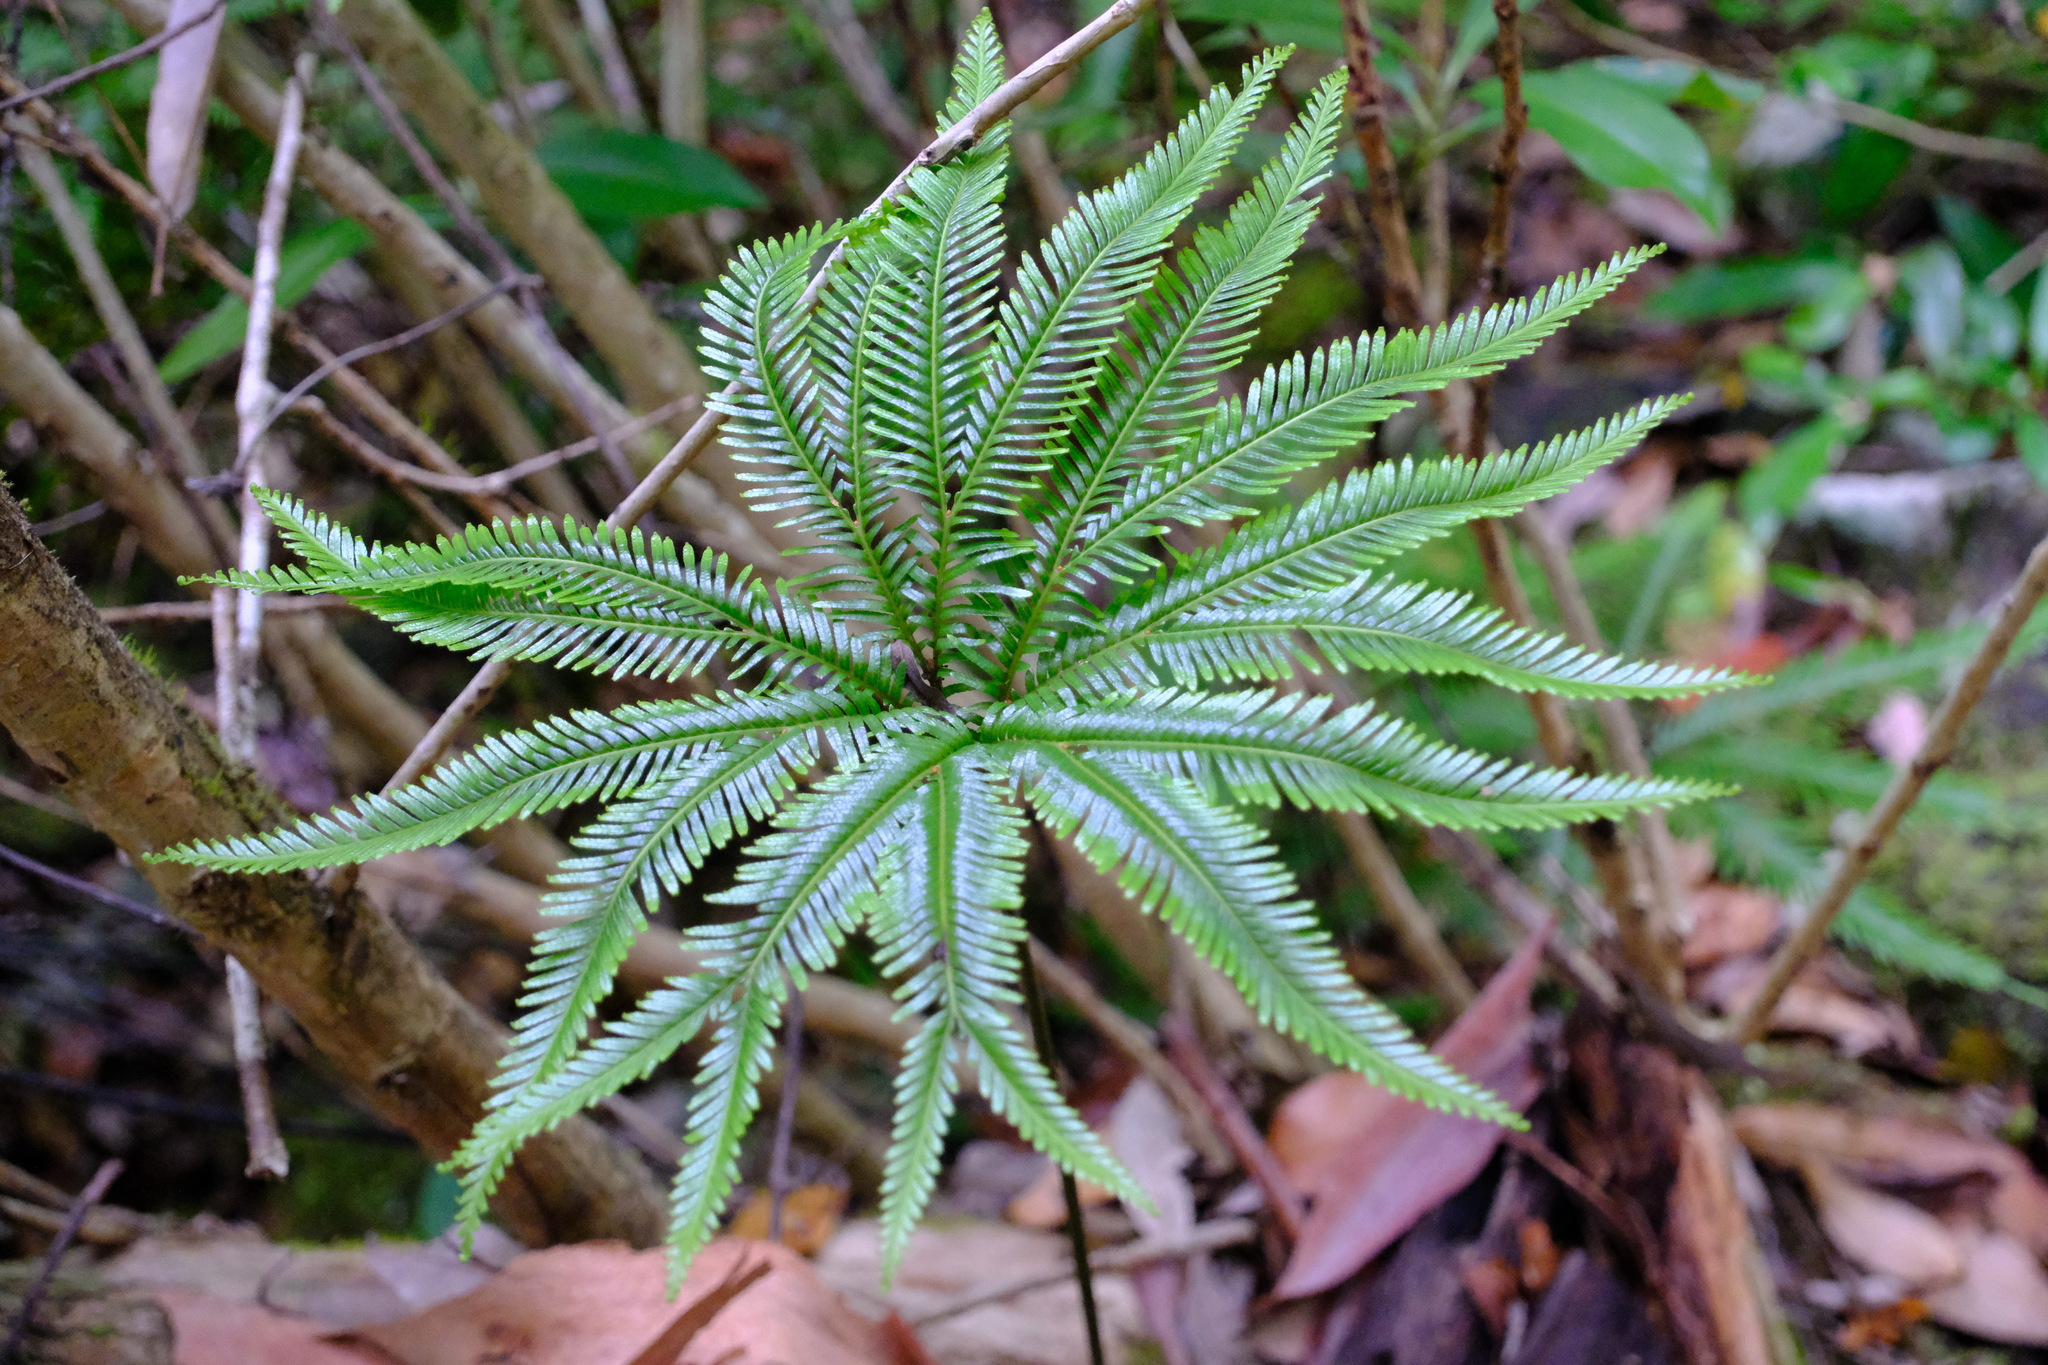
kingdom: Plantae
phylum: Tracheophyta
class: Polypodiopsida
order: Gleicheniales
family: Gleicheniaceae
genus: Sticherus
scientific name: Sticherus flabellatus
